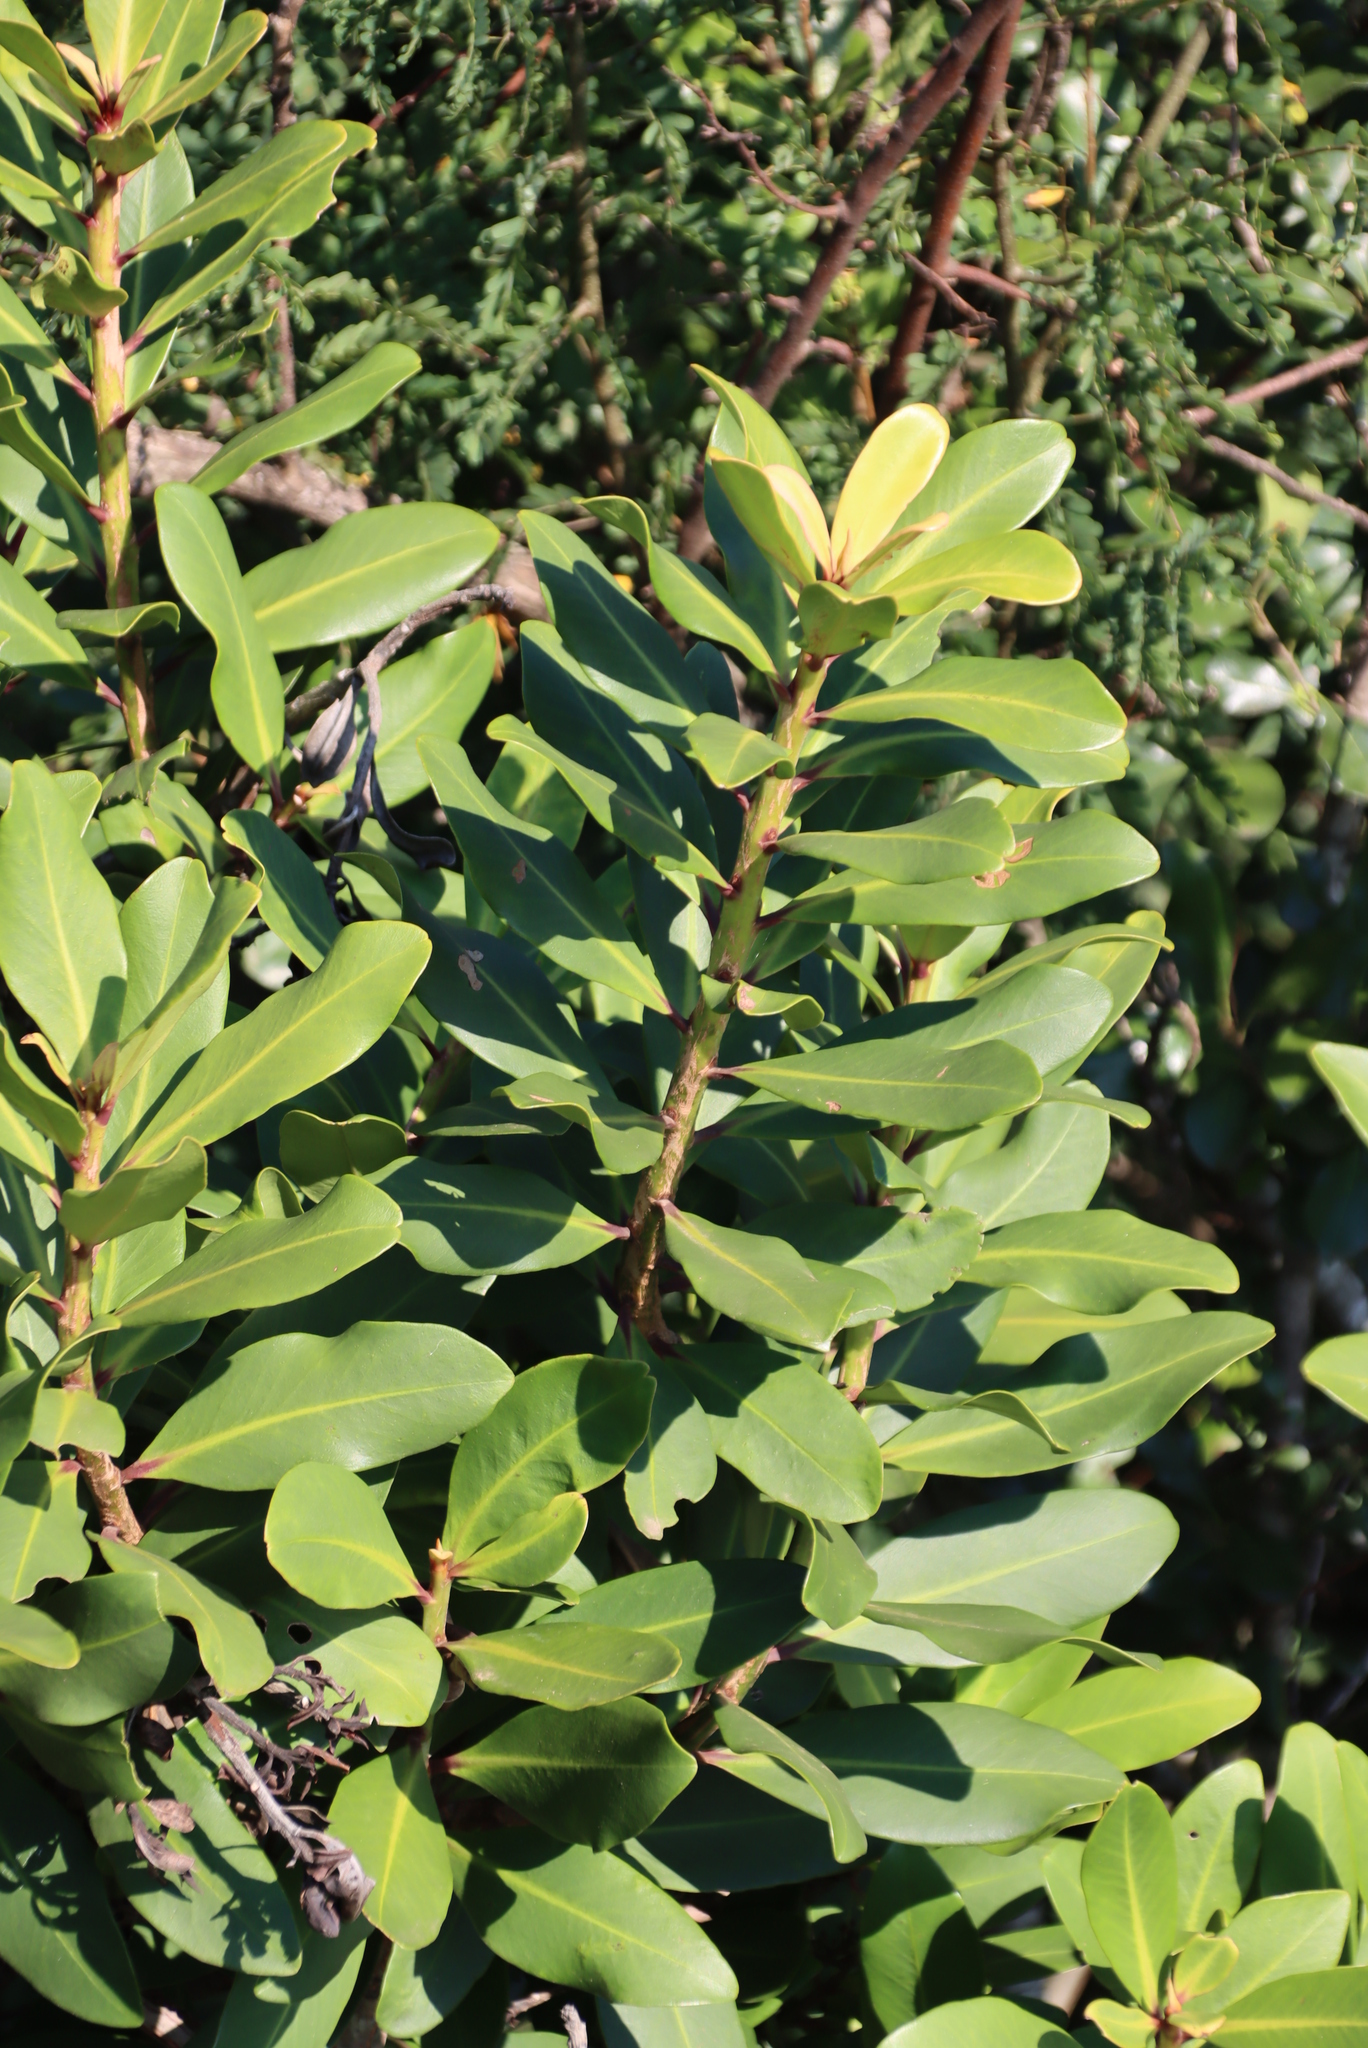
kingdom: Plantae
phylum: Tracheophyta
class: Magnoliopsida
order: Ericales
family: Primulaceae
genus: Myrsine
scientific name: Myrsine melanophloeos
